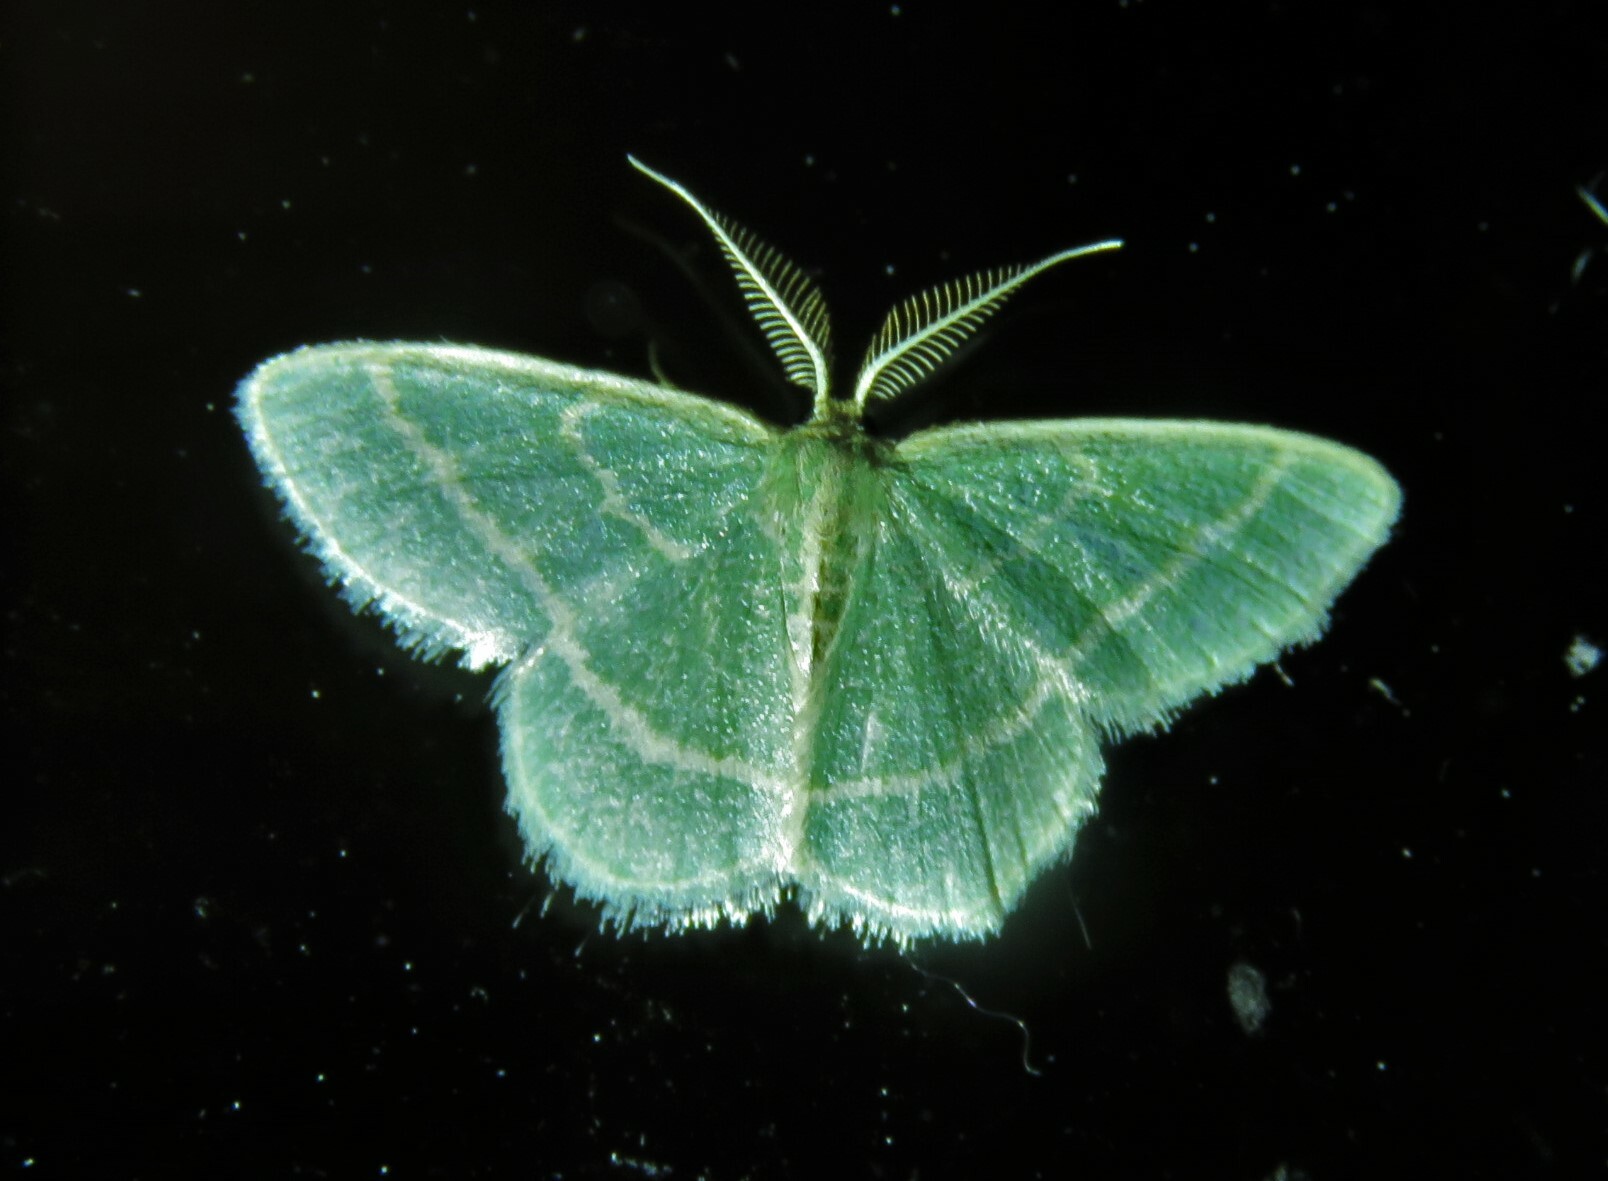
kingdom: Animalia
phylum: Arthropoda
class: Insecta
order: Lepidoptera
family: Geometridae
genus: Chlorochlamys
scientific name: Chlorochlamys chloroleucaria
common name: Blackberry looper
